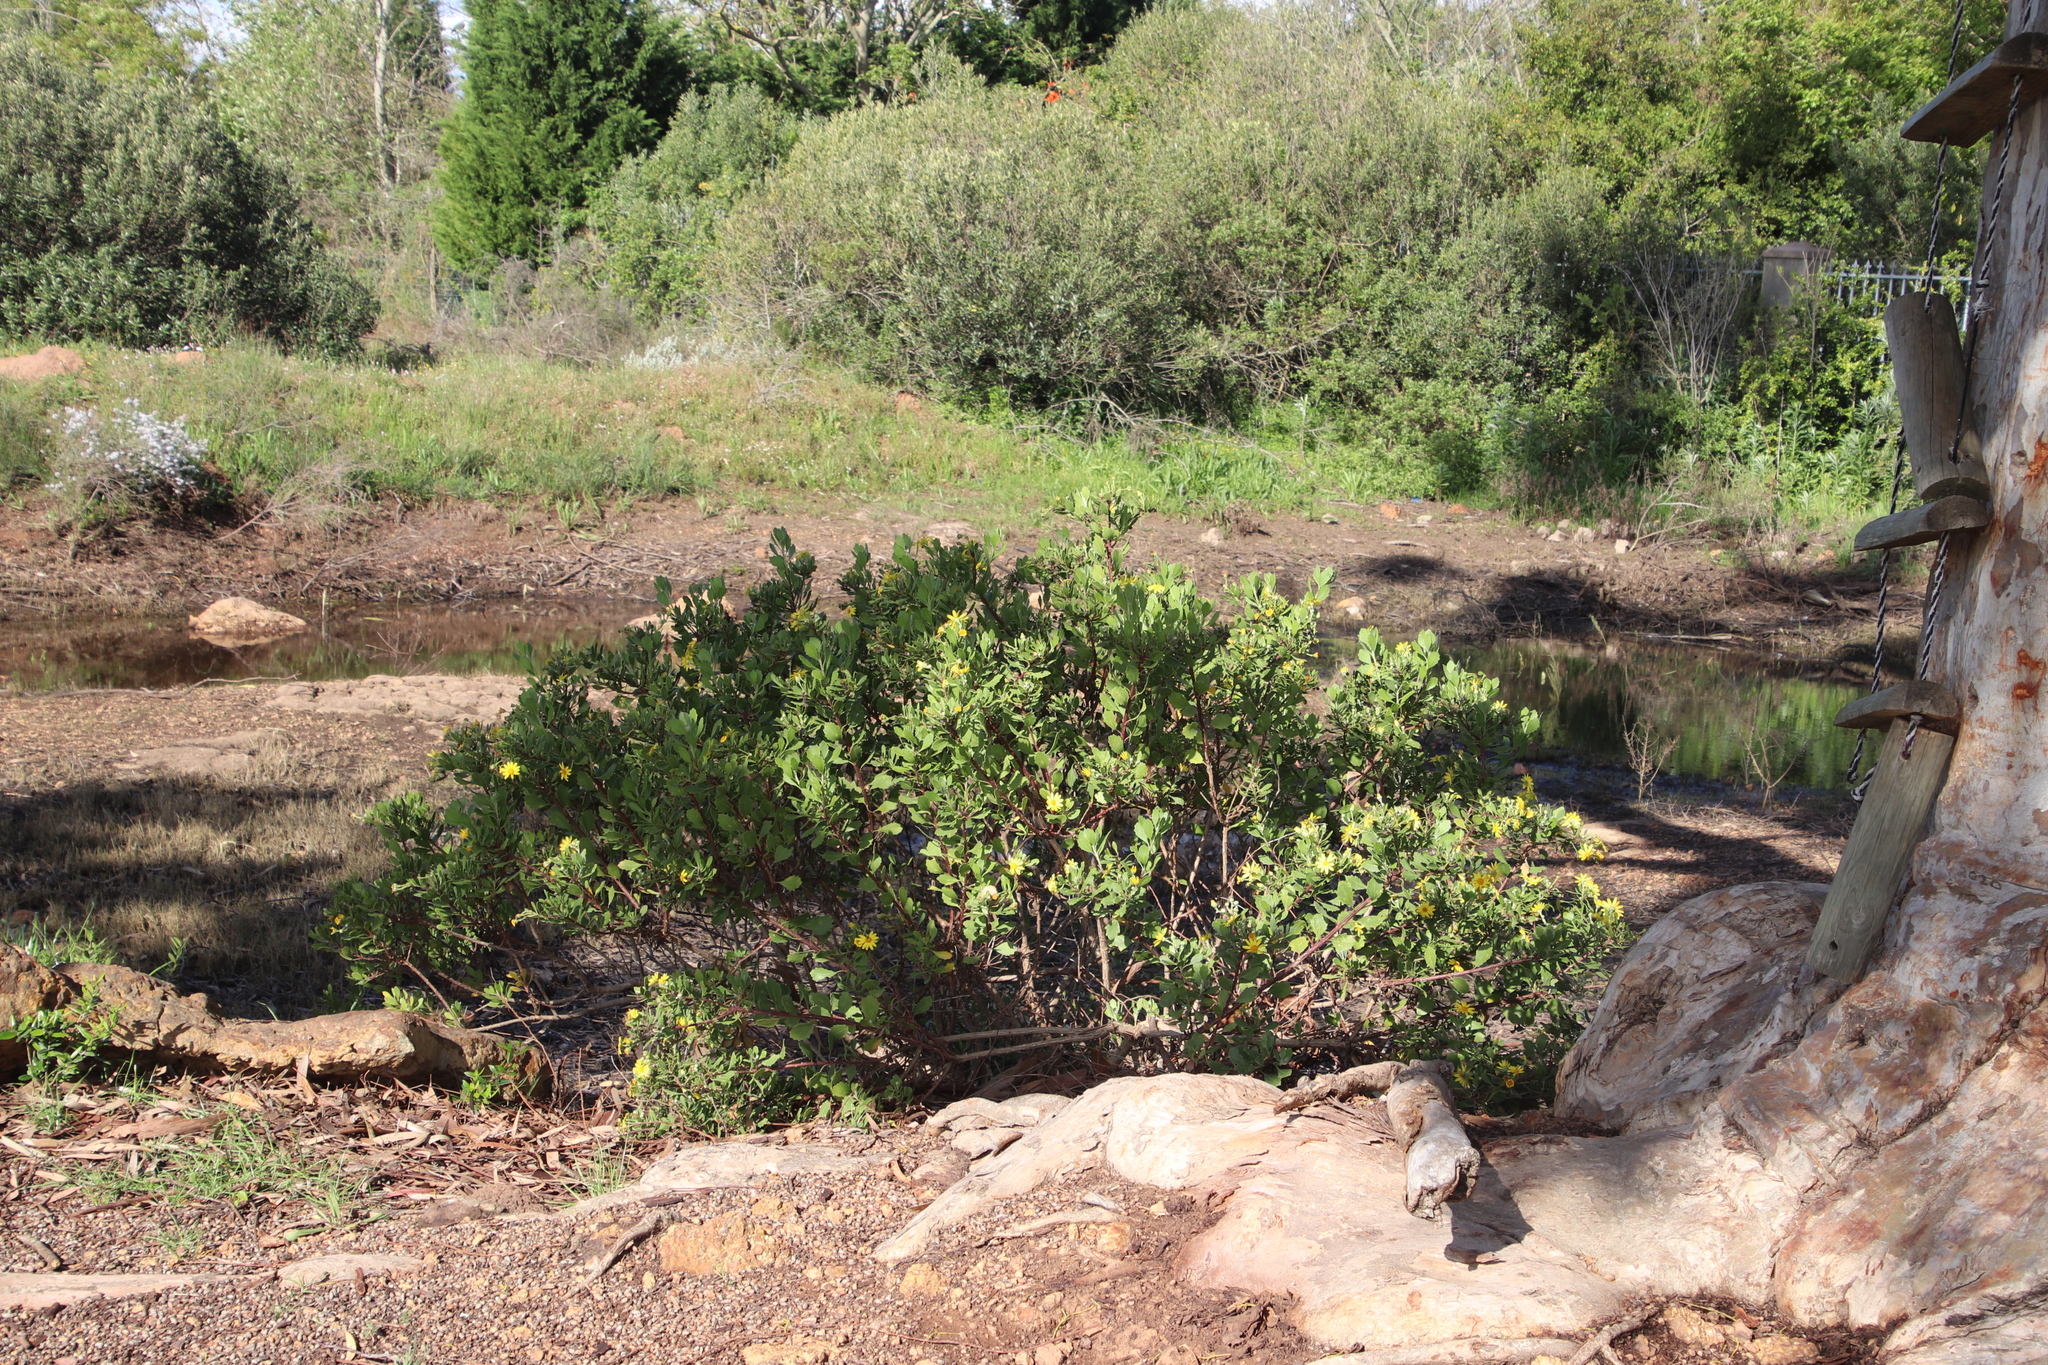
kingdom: Plantae
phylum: Tracheophyta
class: Magnoliopsida
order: Asterales
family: Asteraceae
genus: Osteospermum
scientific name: Osteospermum moniliferum
